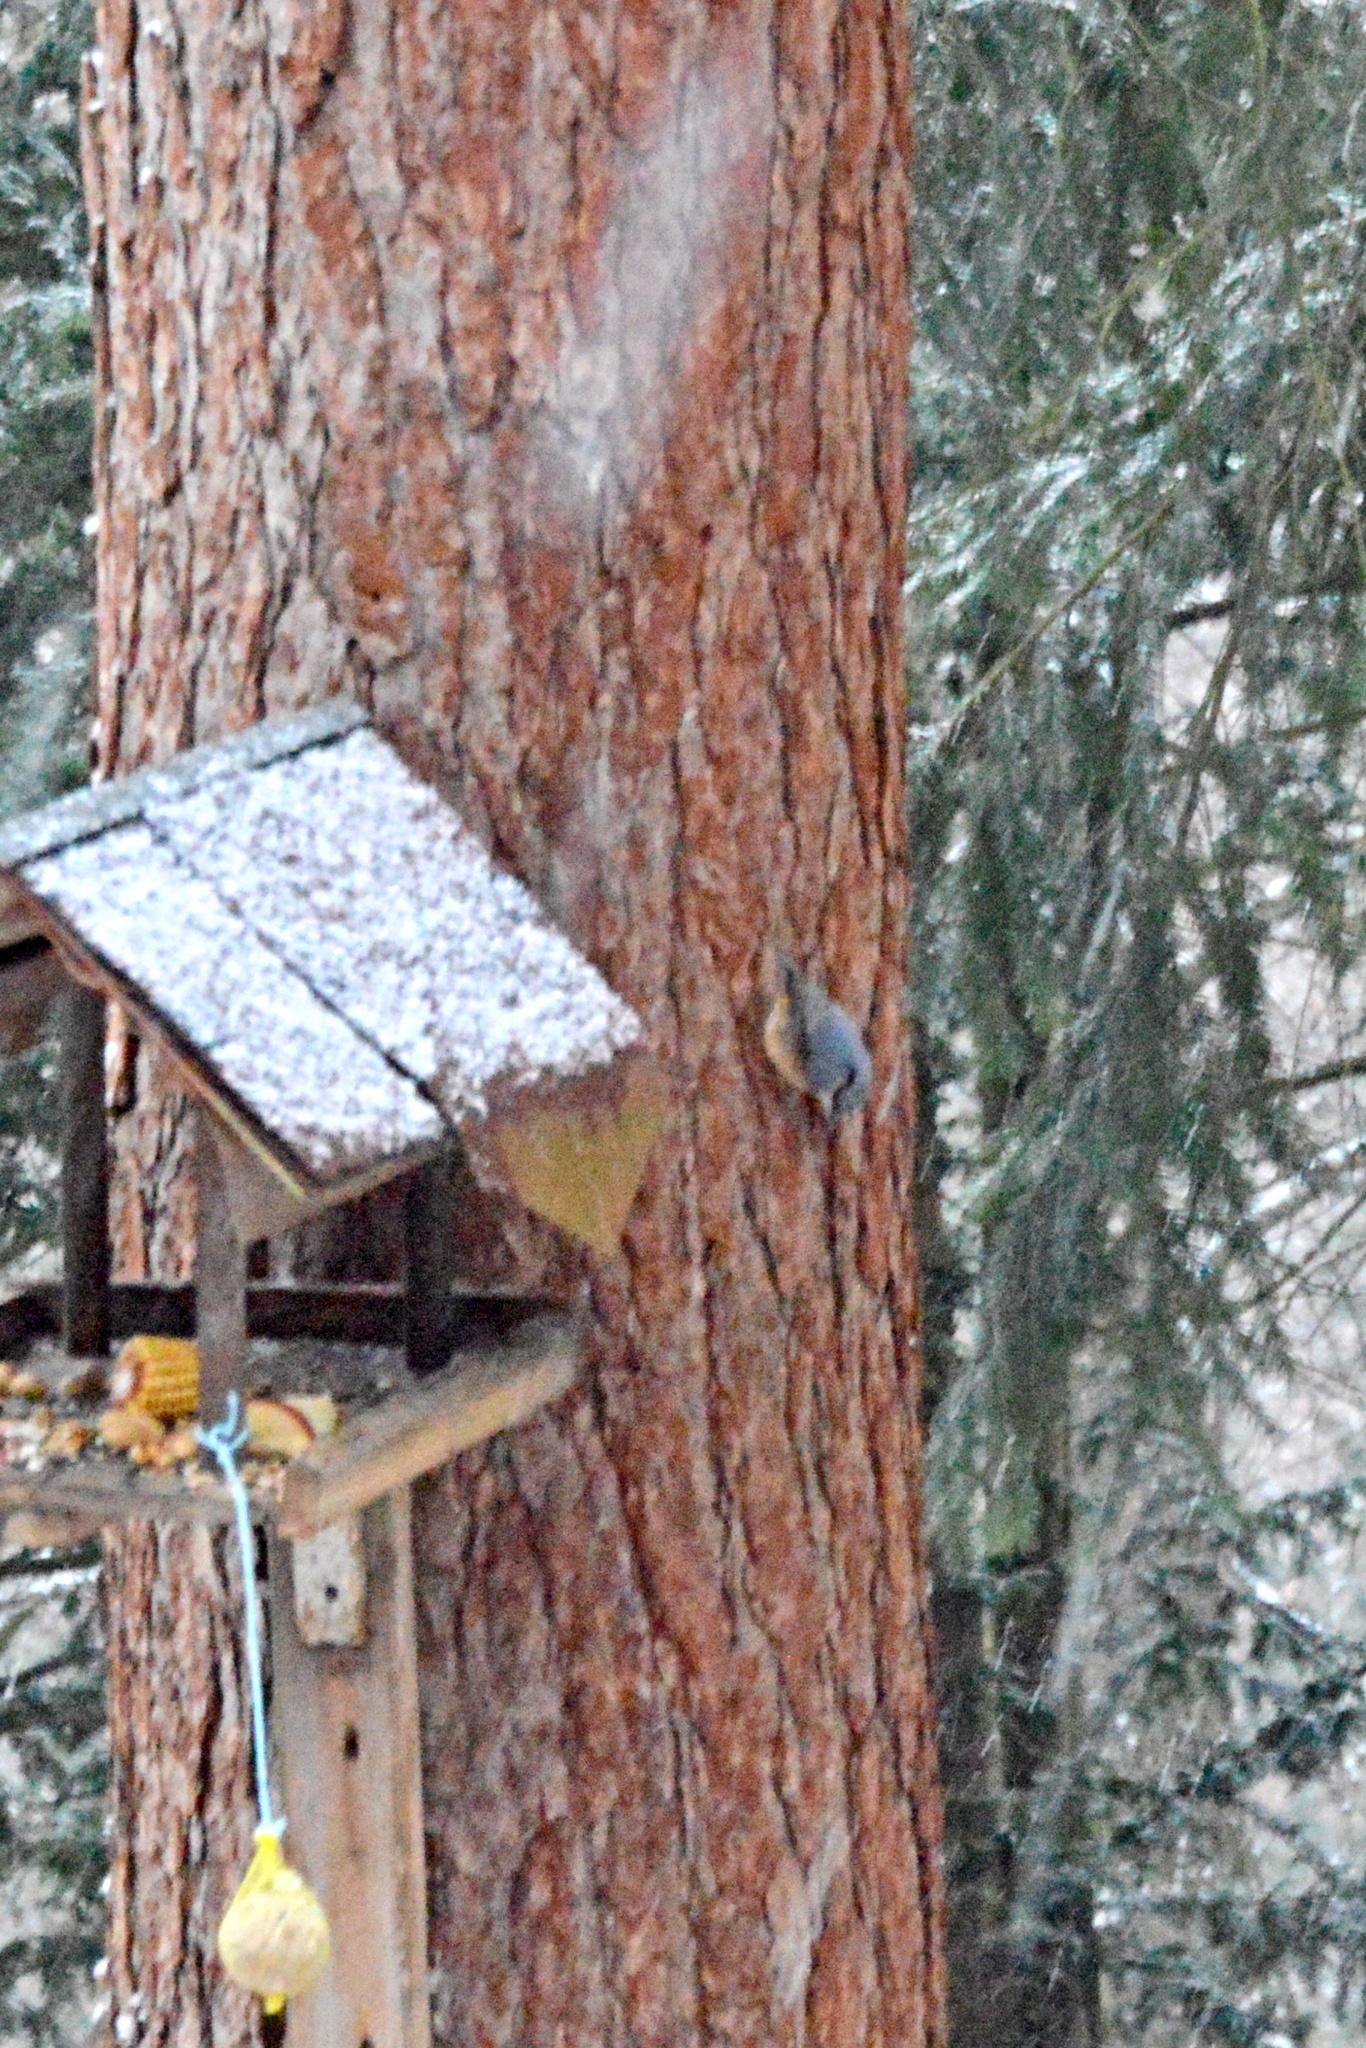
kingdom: Animalia
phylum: Chordata
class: Aves
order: Passeriformes
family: Sittidae
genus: Sitta
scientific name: Sitta europaea
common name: Eurasian nuthatch
